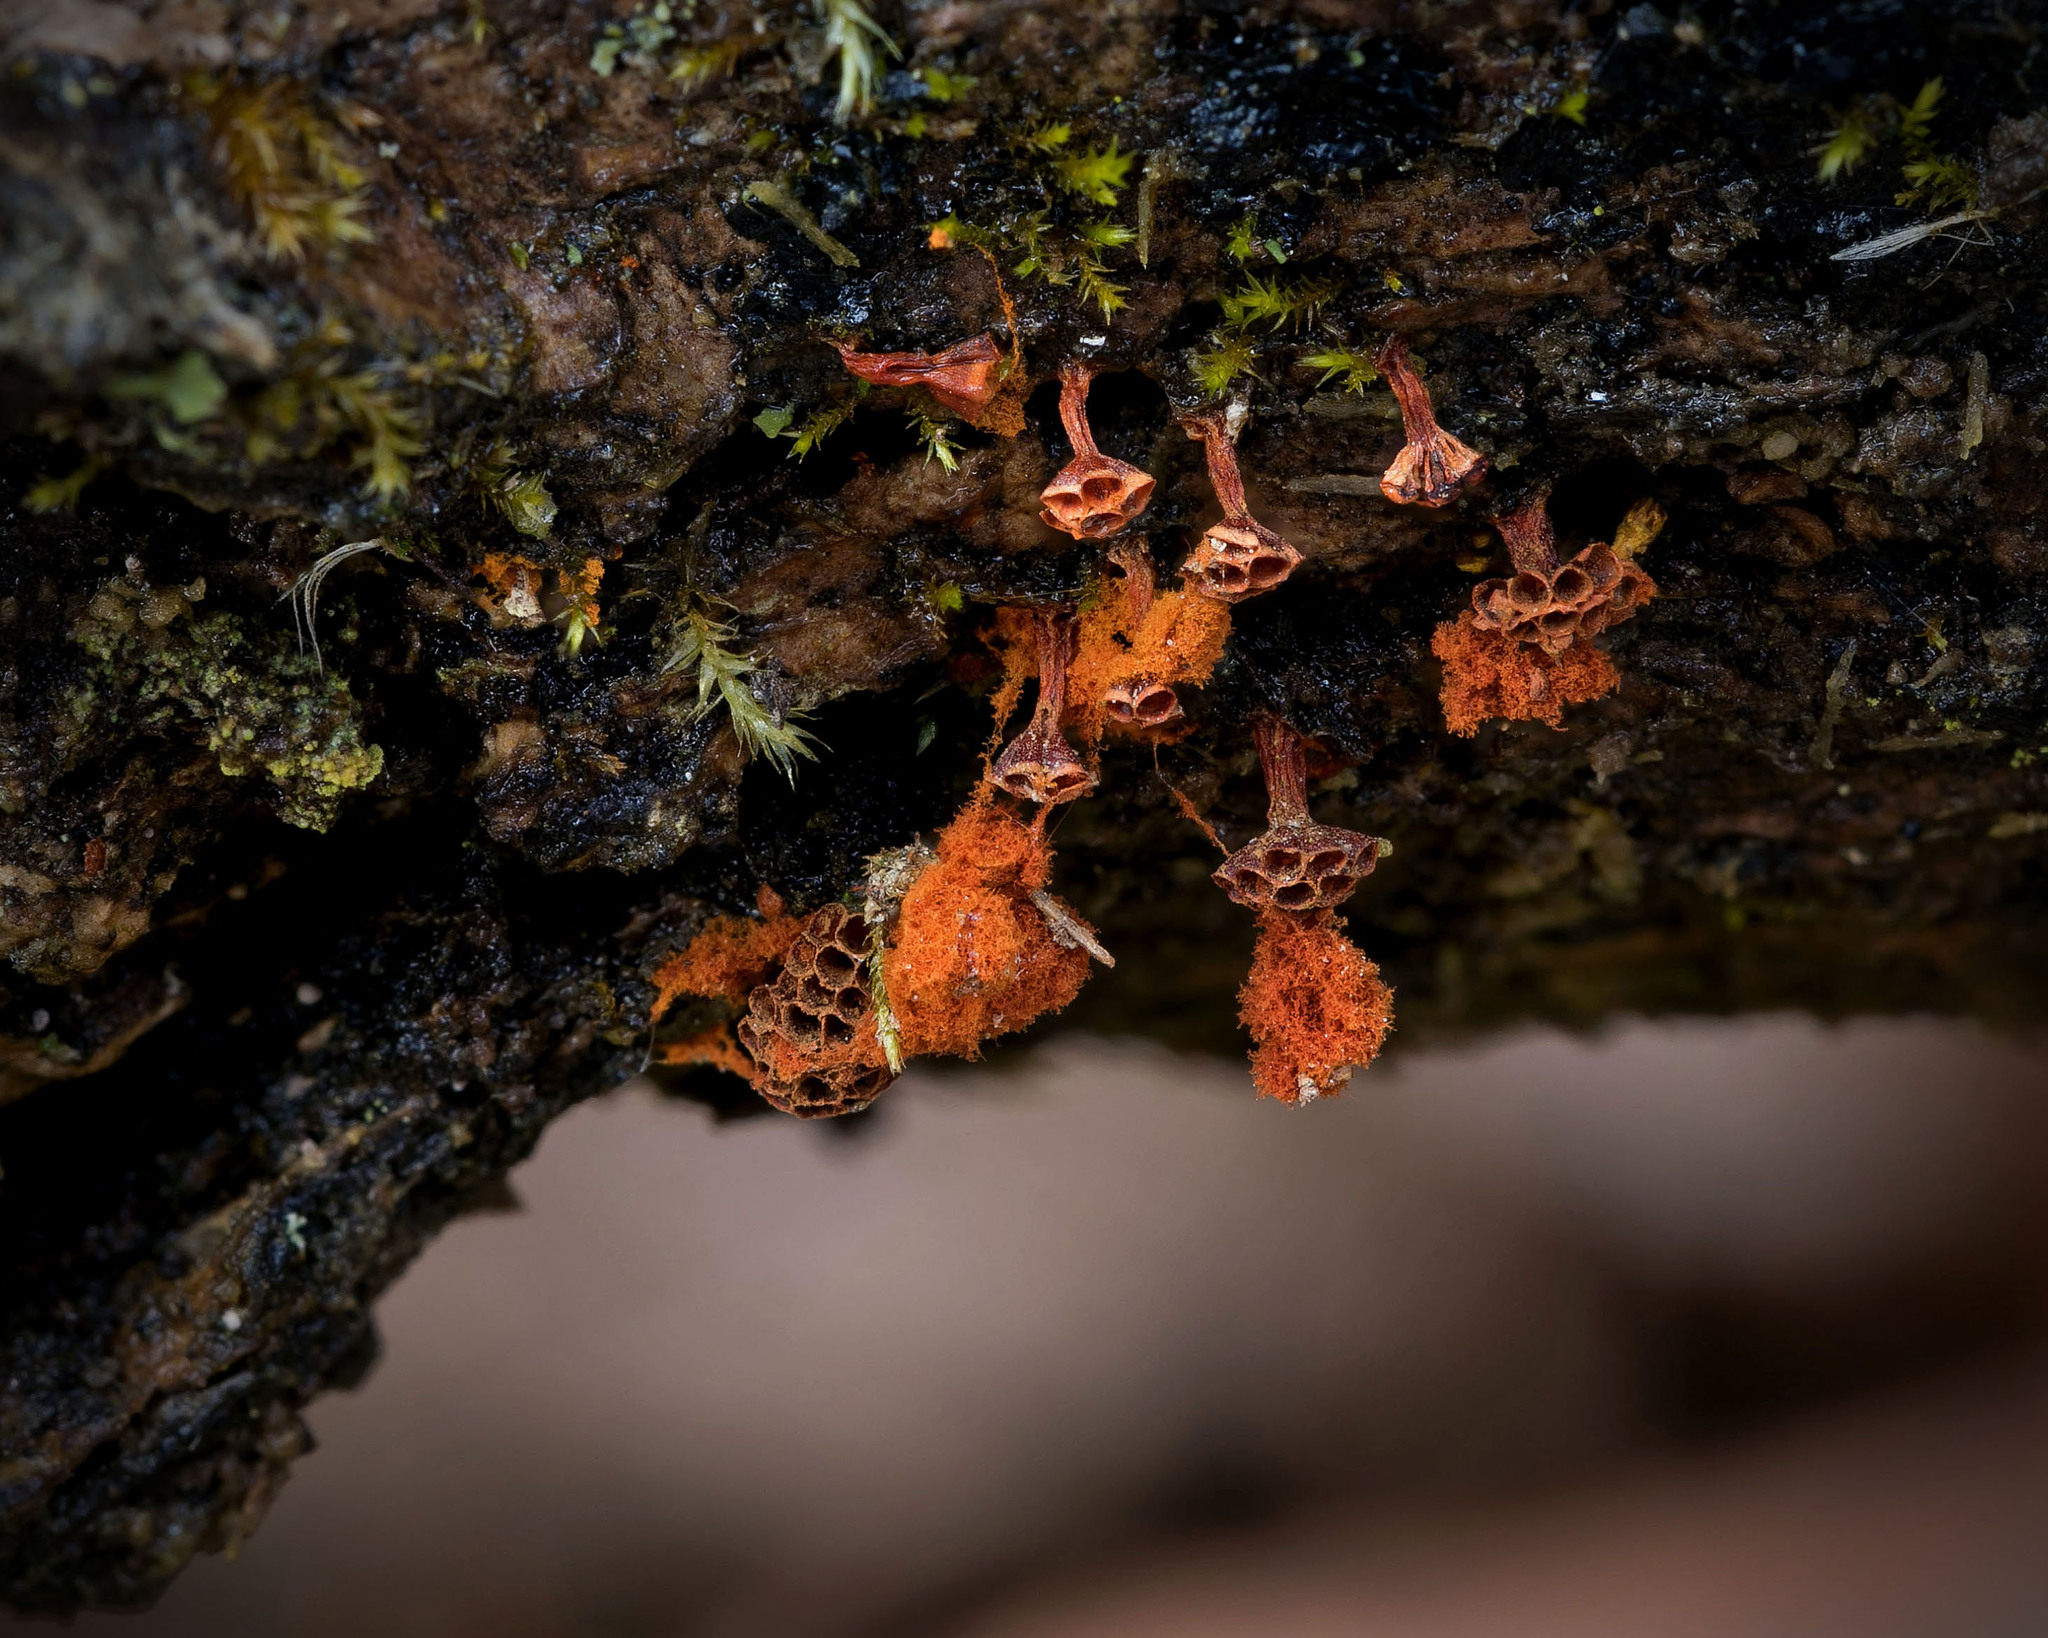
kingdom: Protozoa
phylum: Mycetozoa
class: Myxomycetes
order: Trichiales
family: Trichiaceae
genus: Metatrichia
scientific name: Metatrichia vesparia
